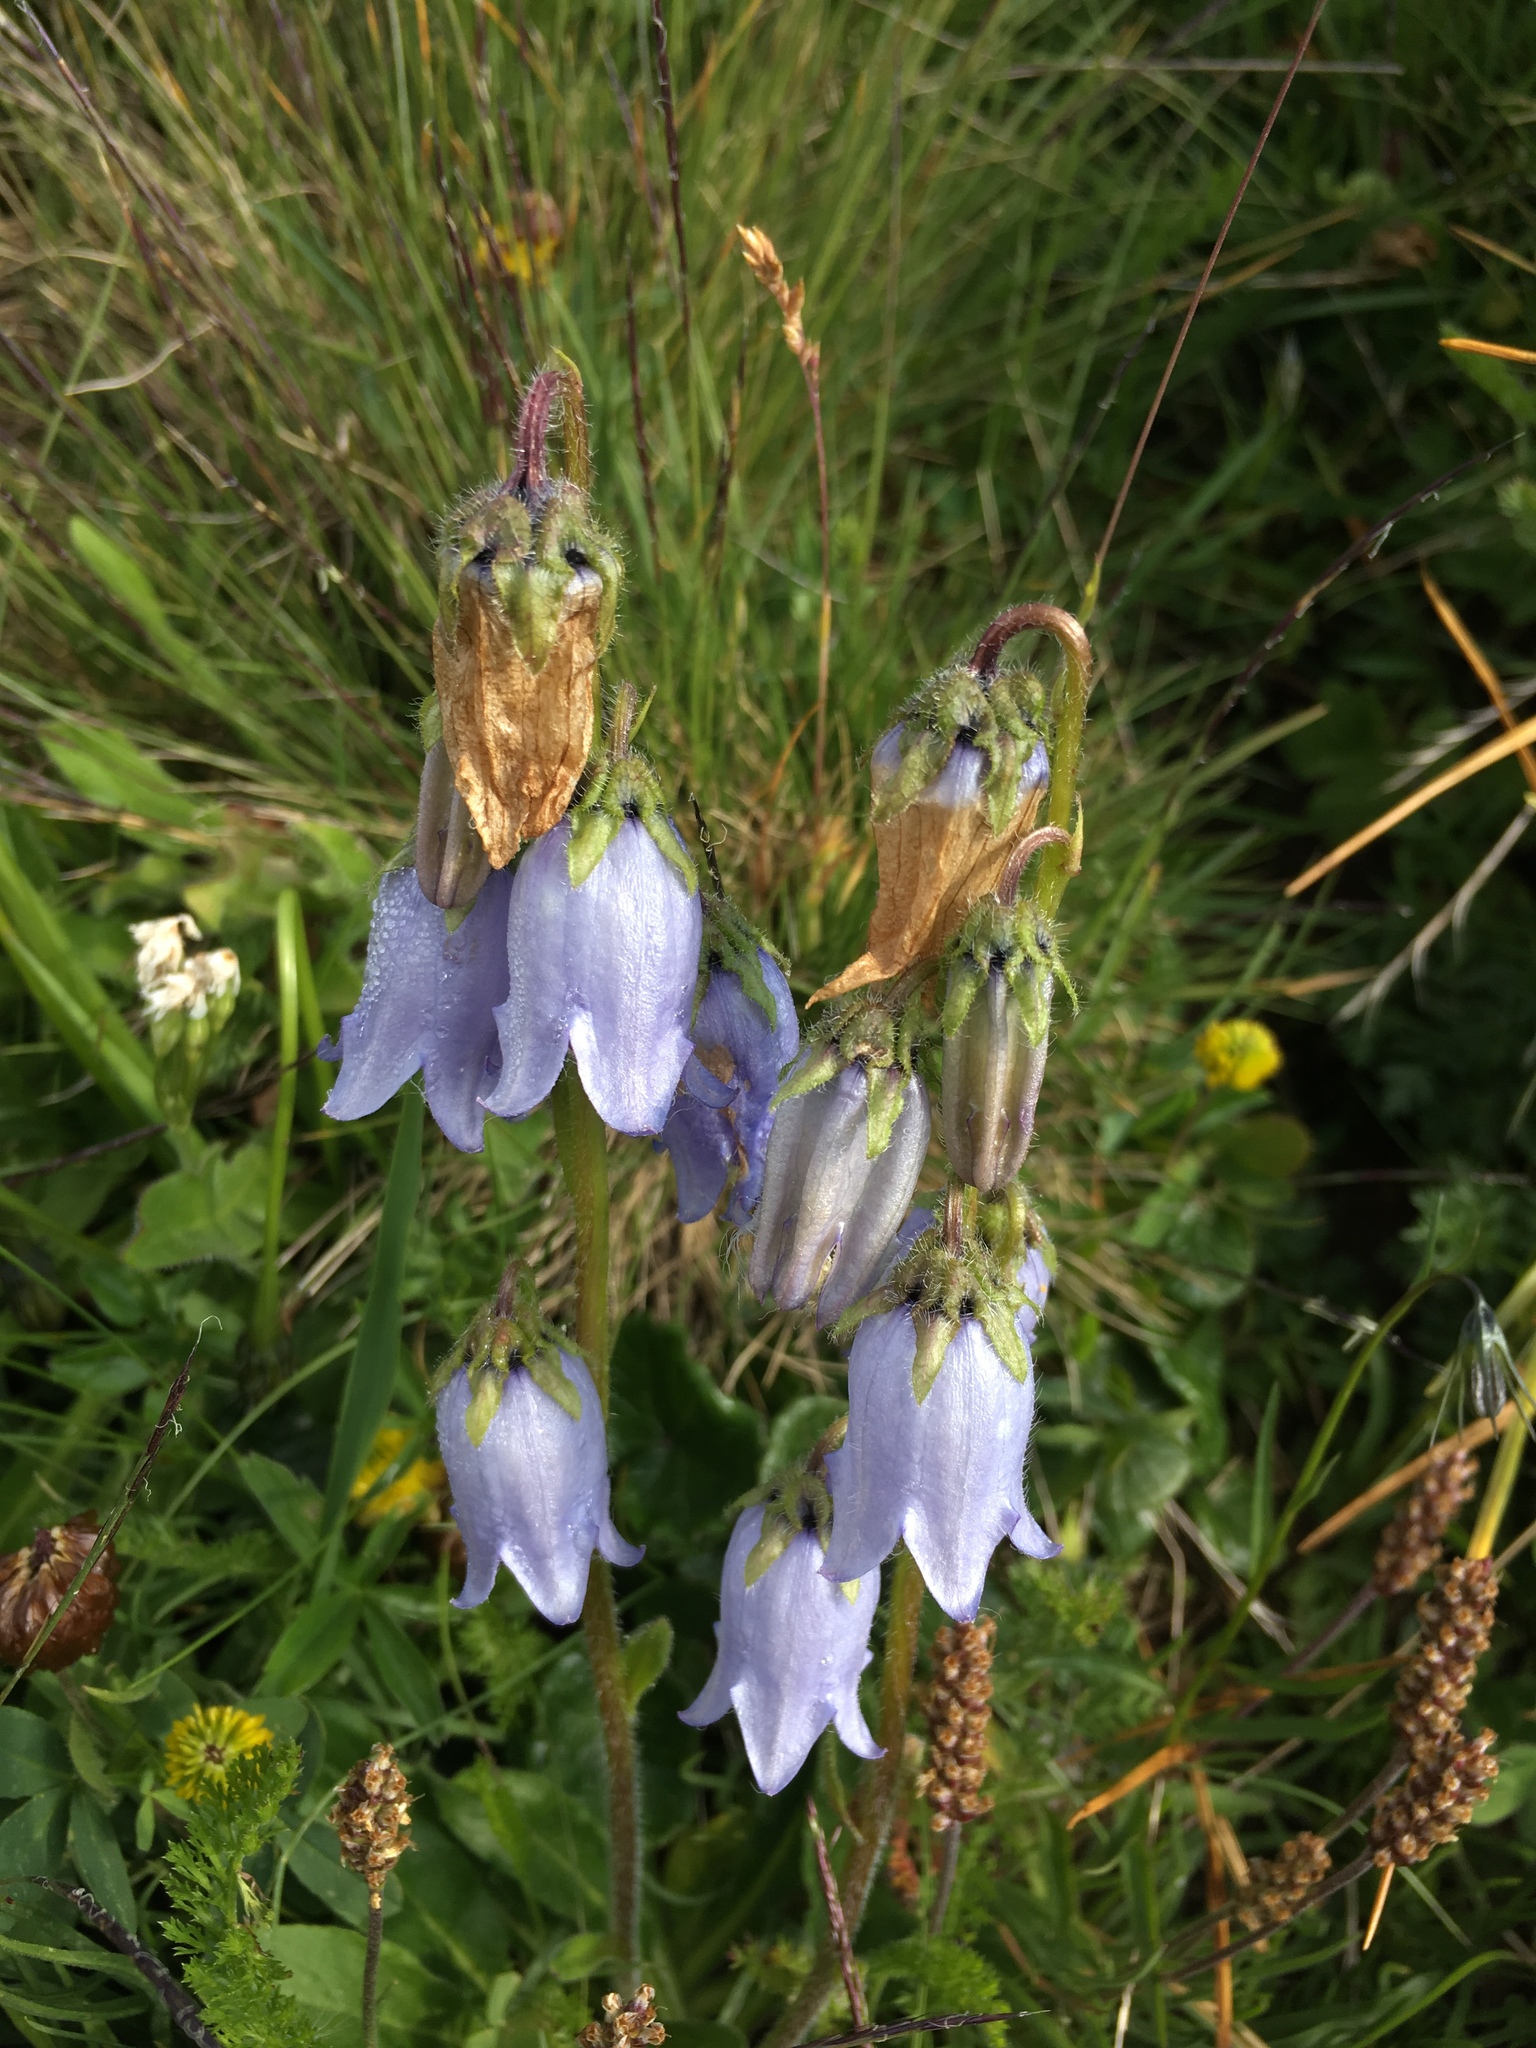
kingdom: Plantae
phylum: Tracheophyta
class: Magnoliopsida
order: Asterales
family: Campanulaceae
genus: Campanula
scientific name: Campanula barbata
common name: Bearded bellflower
